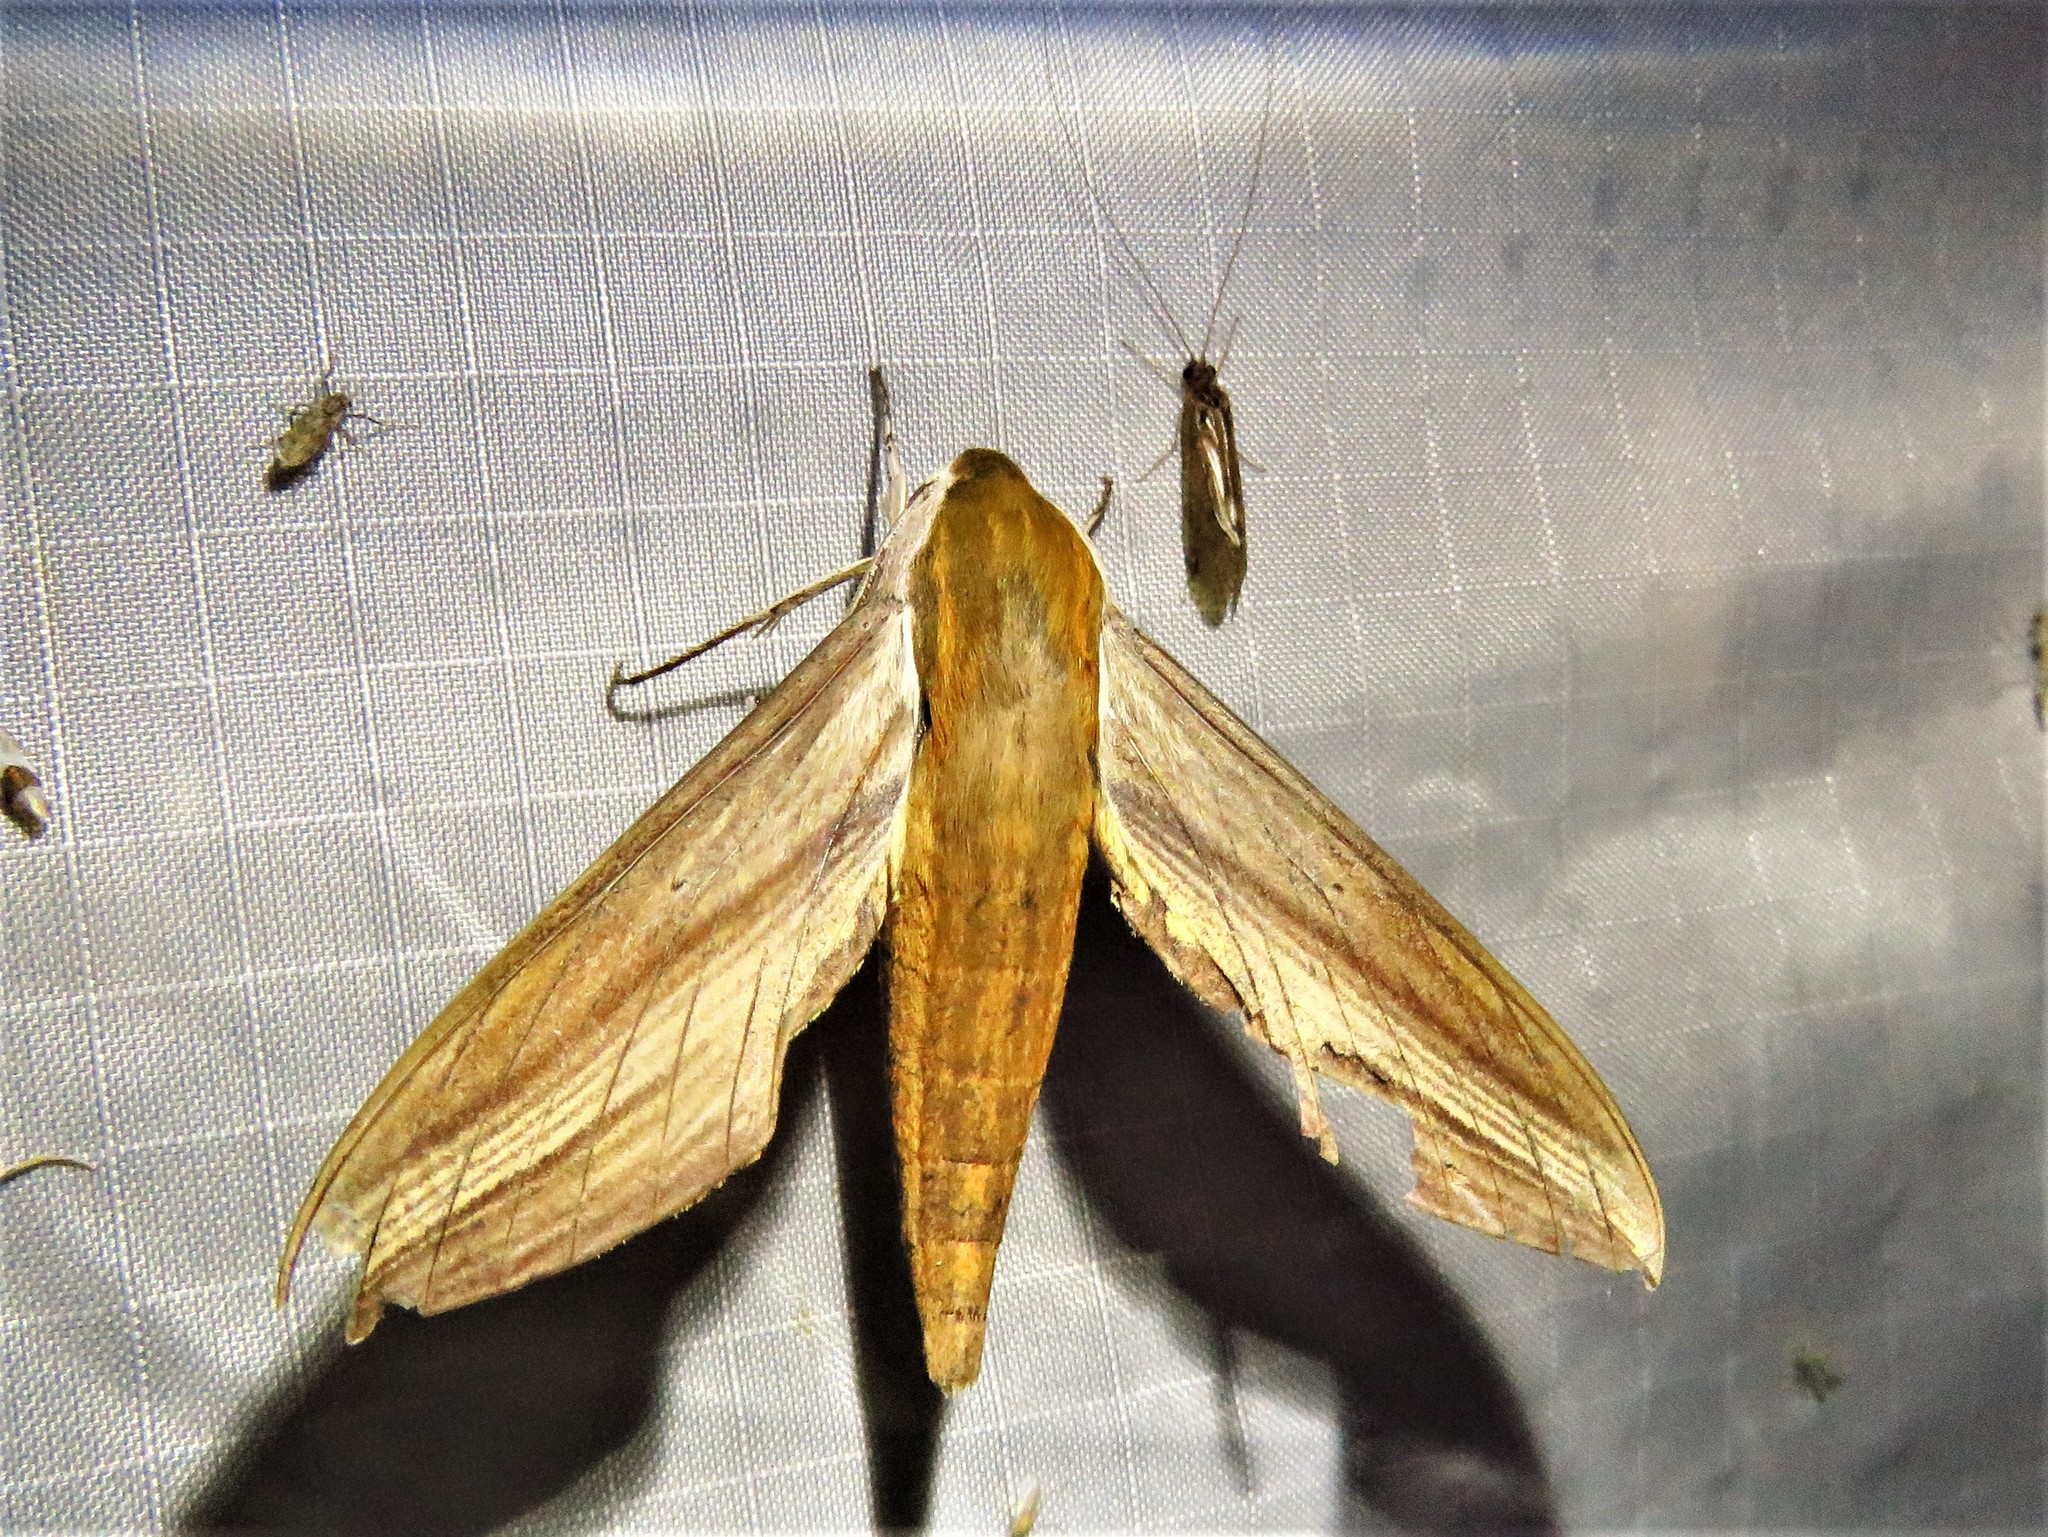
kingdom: Animalia
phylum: Arthropoda
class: Insecta
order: Lepidoptera
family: Sphingidae
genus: Xylophanes
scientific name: Xylophanes tersa
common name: Tersa sphinx
